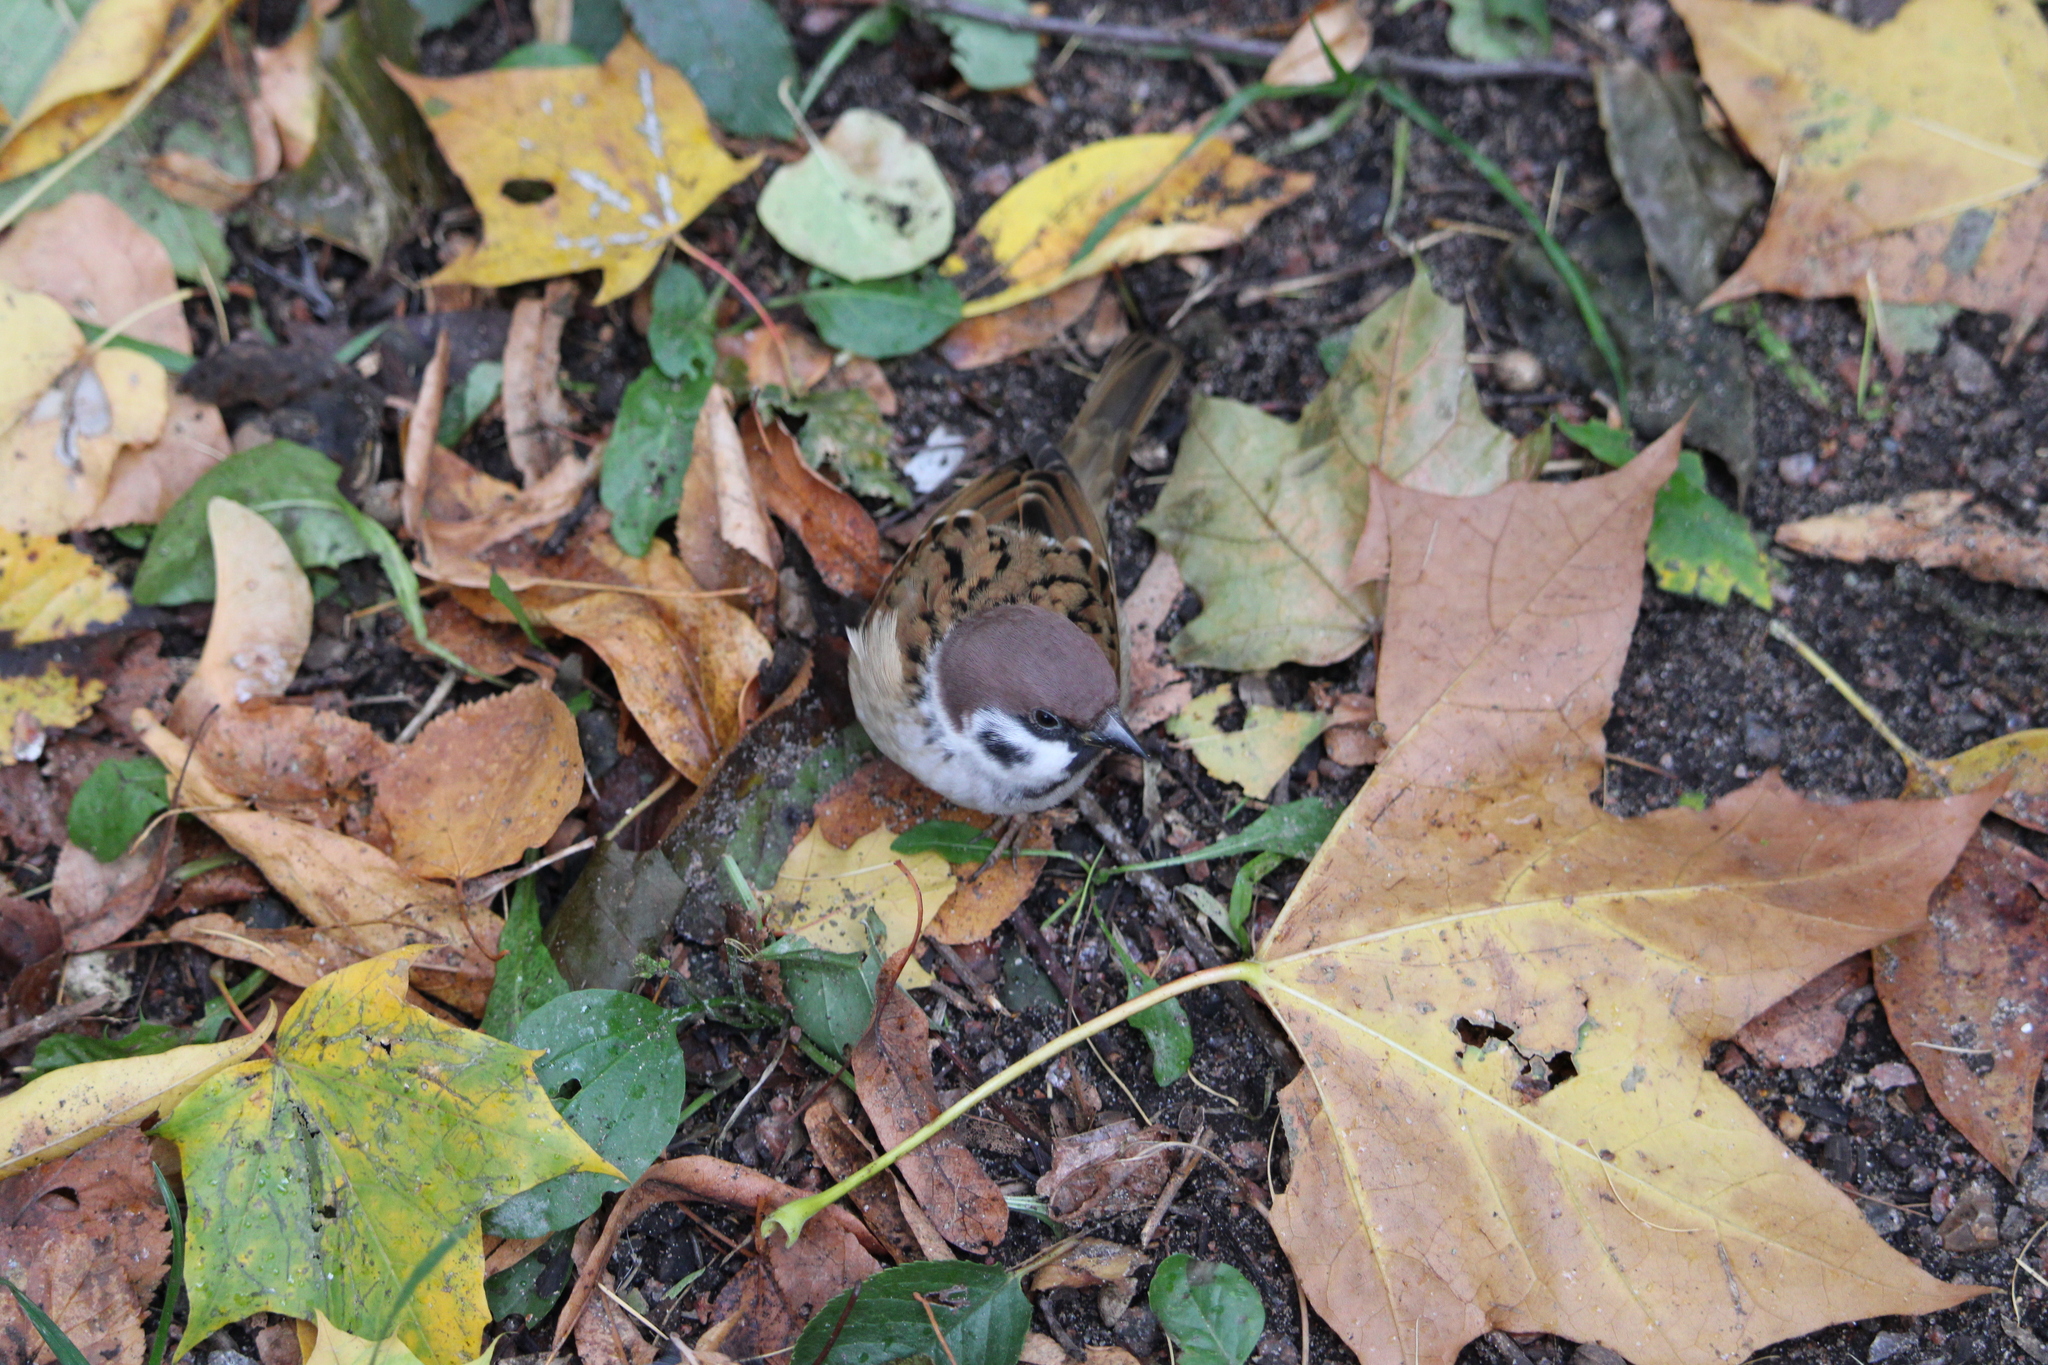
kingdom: Animalia
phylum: Chordata
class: Aves
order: Passeriformes
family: Passeridae
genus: Passer
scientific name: Passer montanus
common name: Eurasian tree sparrow
